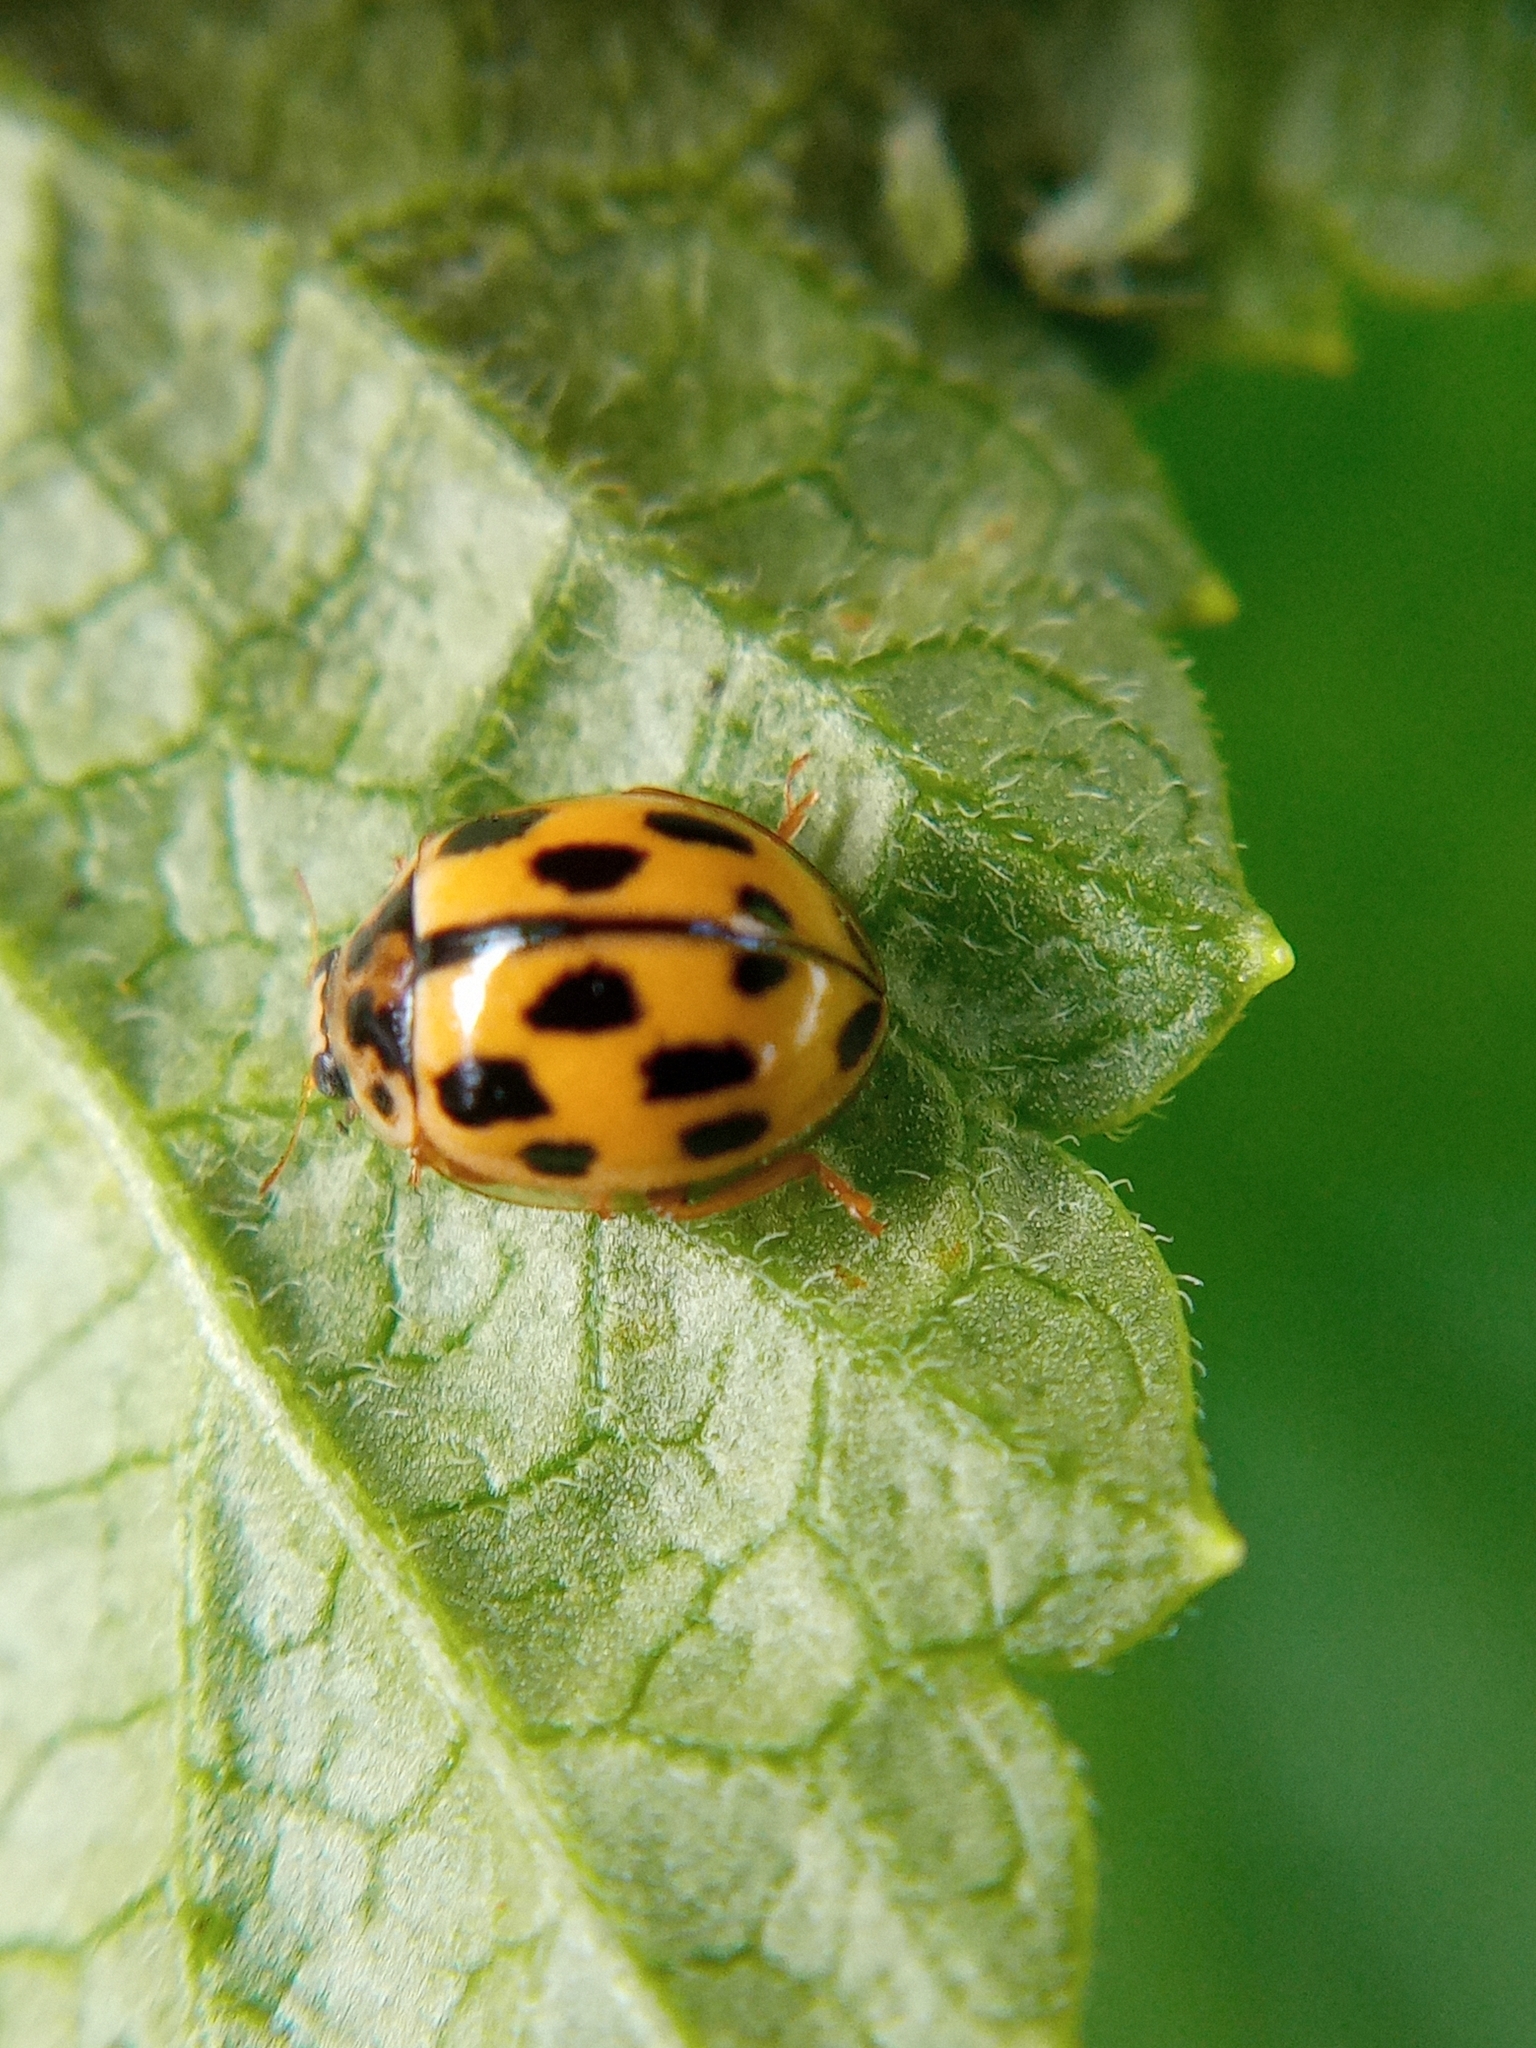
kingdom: Animalia
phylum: Arthropoda
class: Insecta
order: Coleoptera
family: Coccinellidae
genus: Propylaea
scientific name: Propylaea quatuordecimpunctata
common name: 14-spotted ladybird beetle
